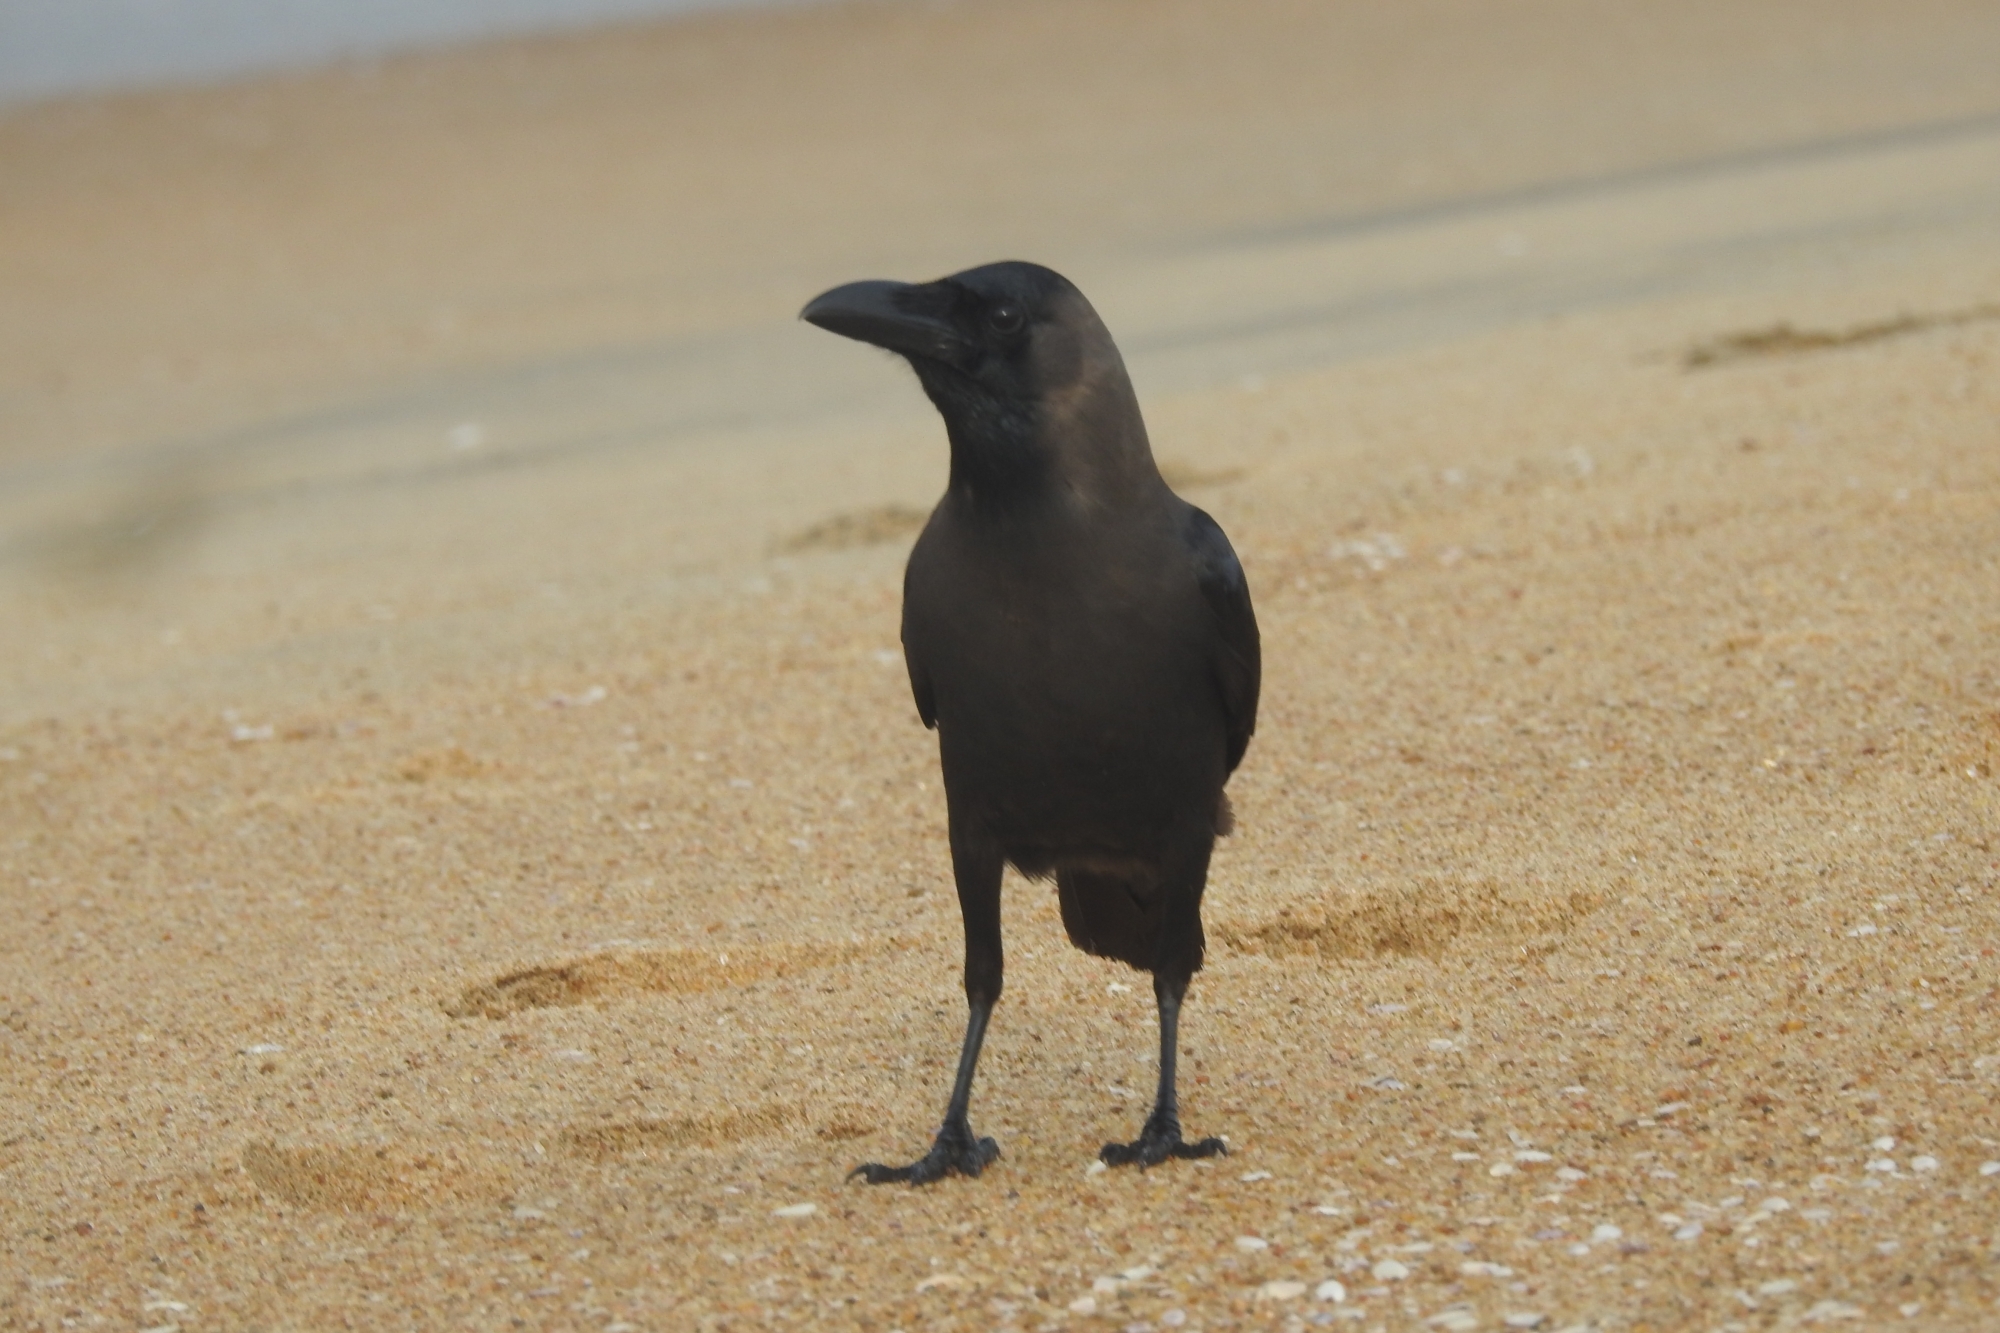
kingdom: Animalia
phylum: Chordata
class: Aves
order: Passeriformes
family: Corvidae
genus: Corvus
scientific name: Corvus splendens
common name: House crow
